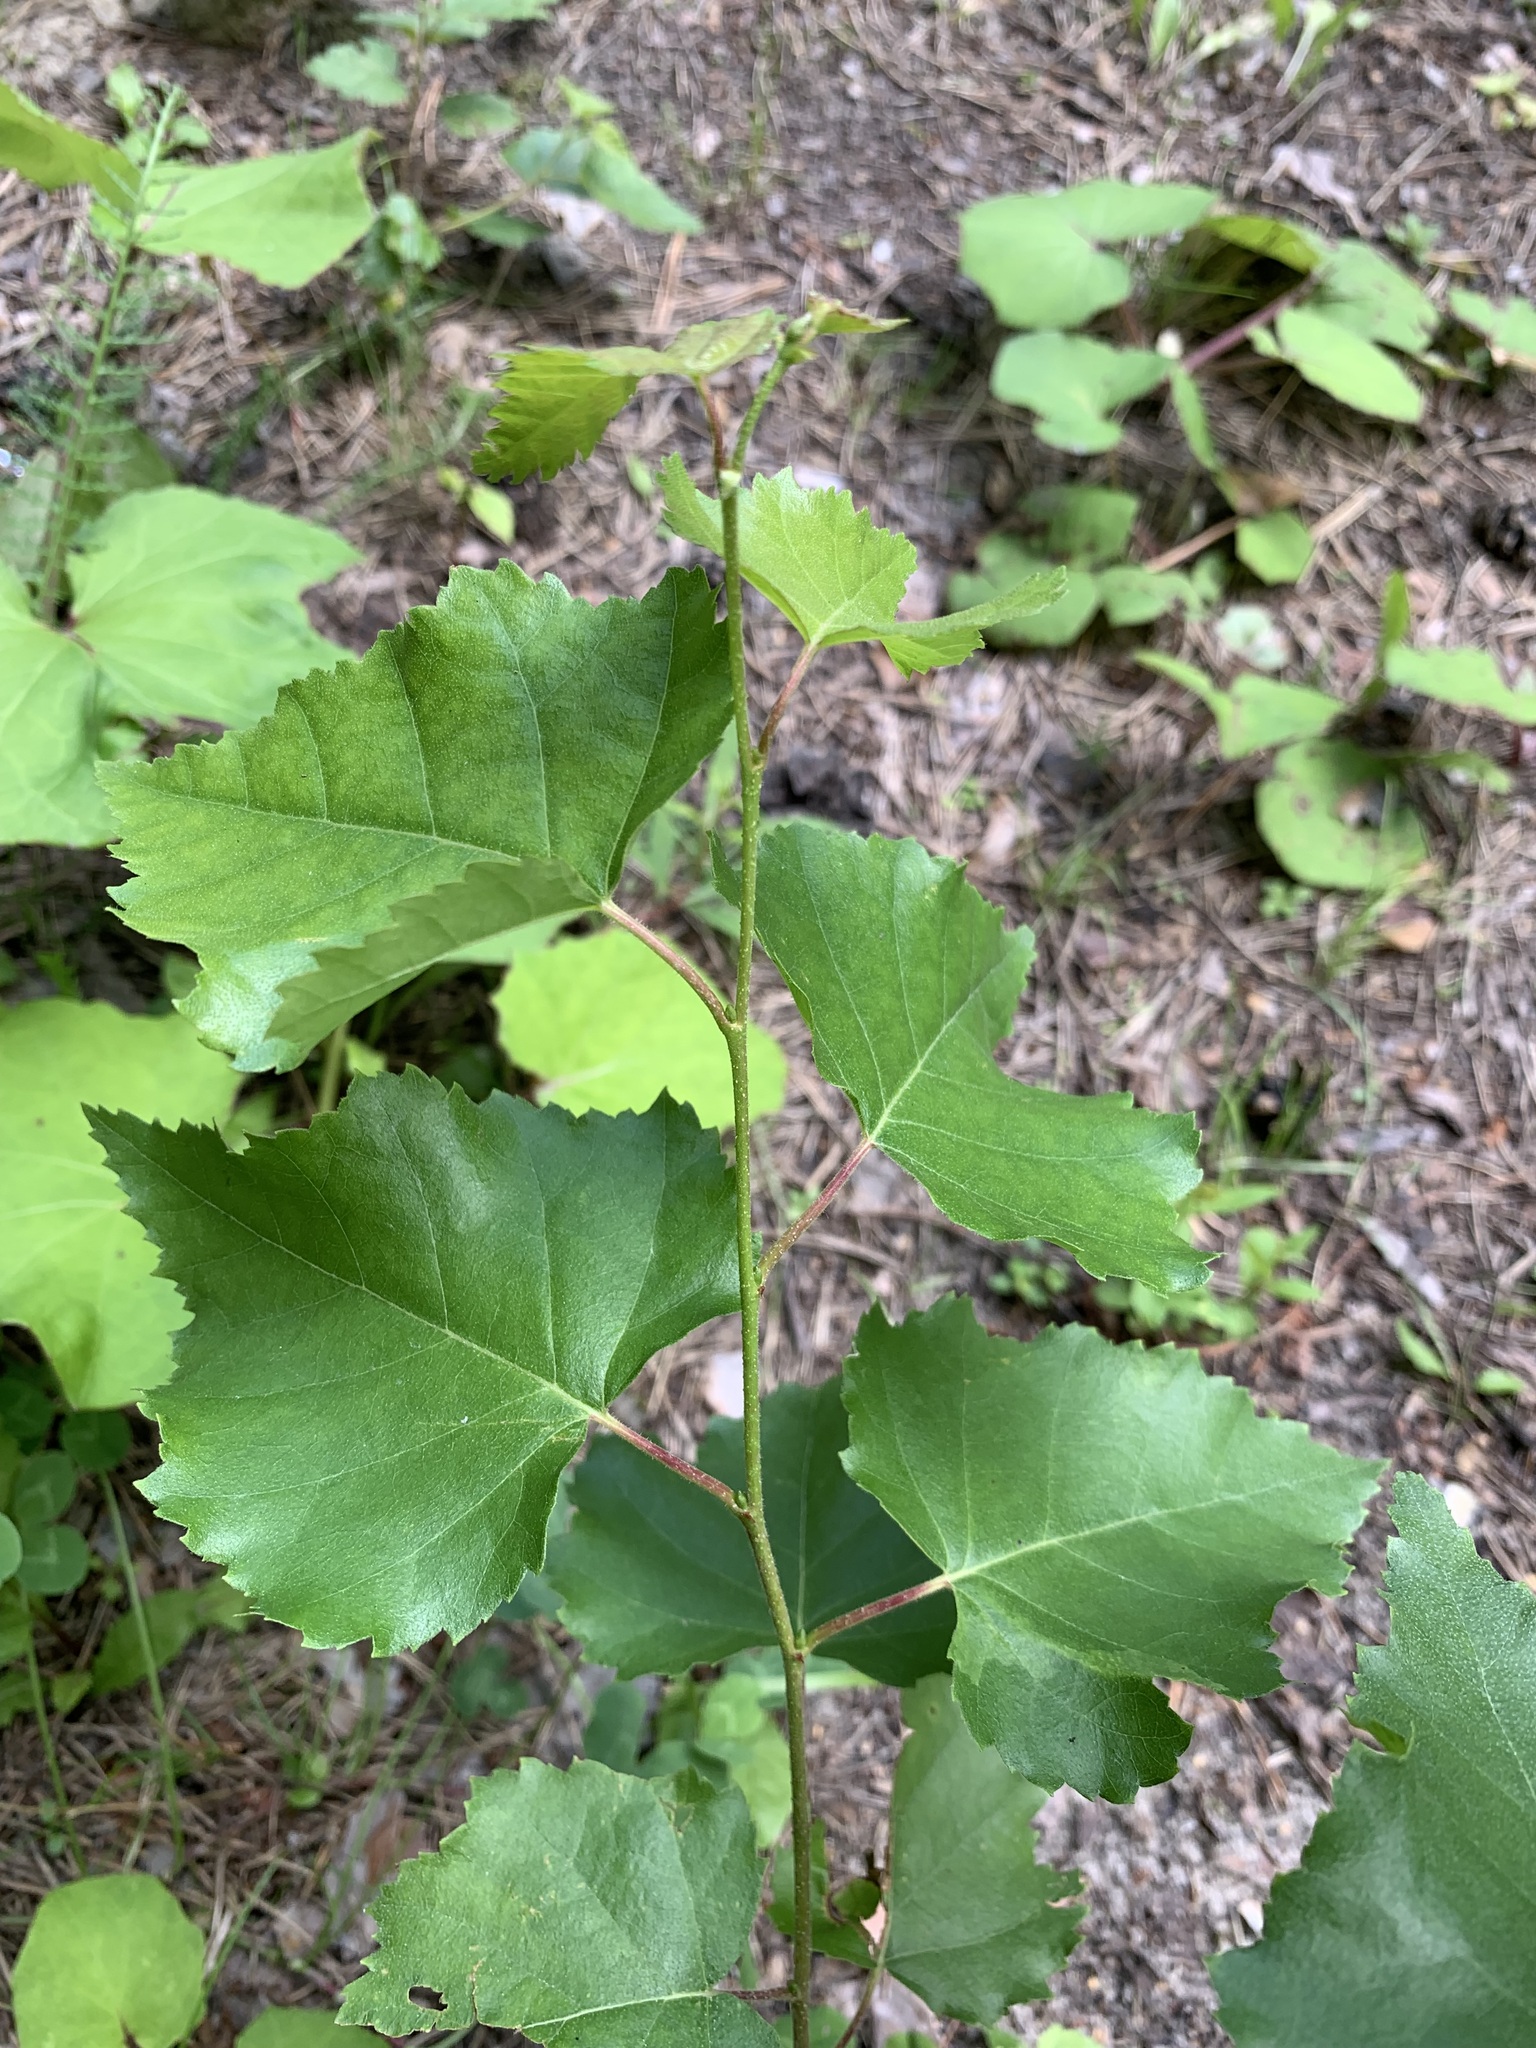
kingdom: Plantae
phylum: Tracheophyta
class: Magnoliopsida
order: Fagales
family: Betulaceae
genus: Betula
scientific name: Betula pendula
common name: Silver birch
